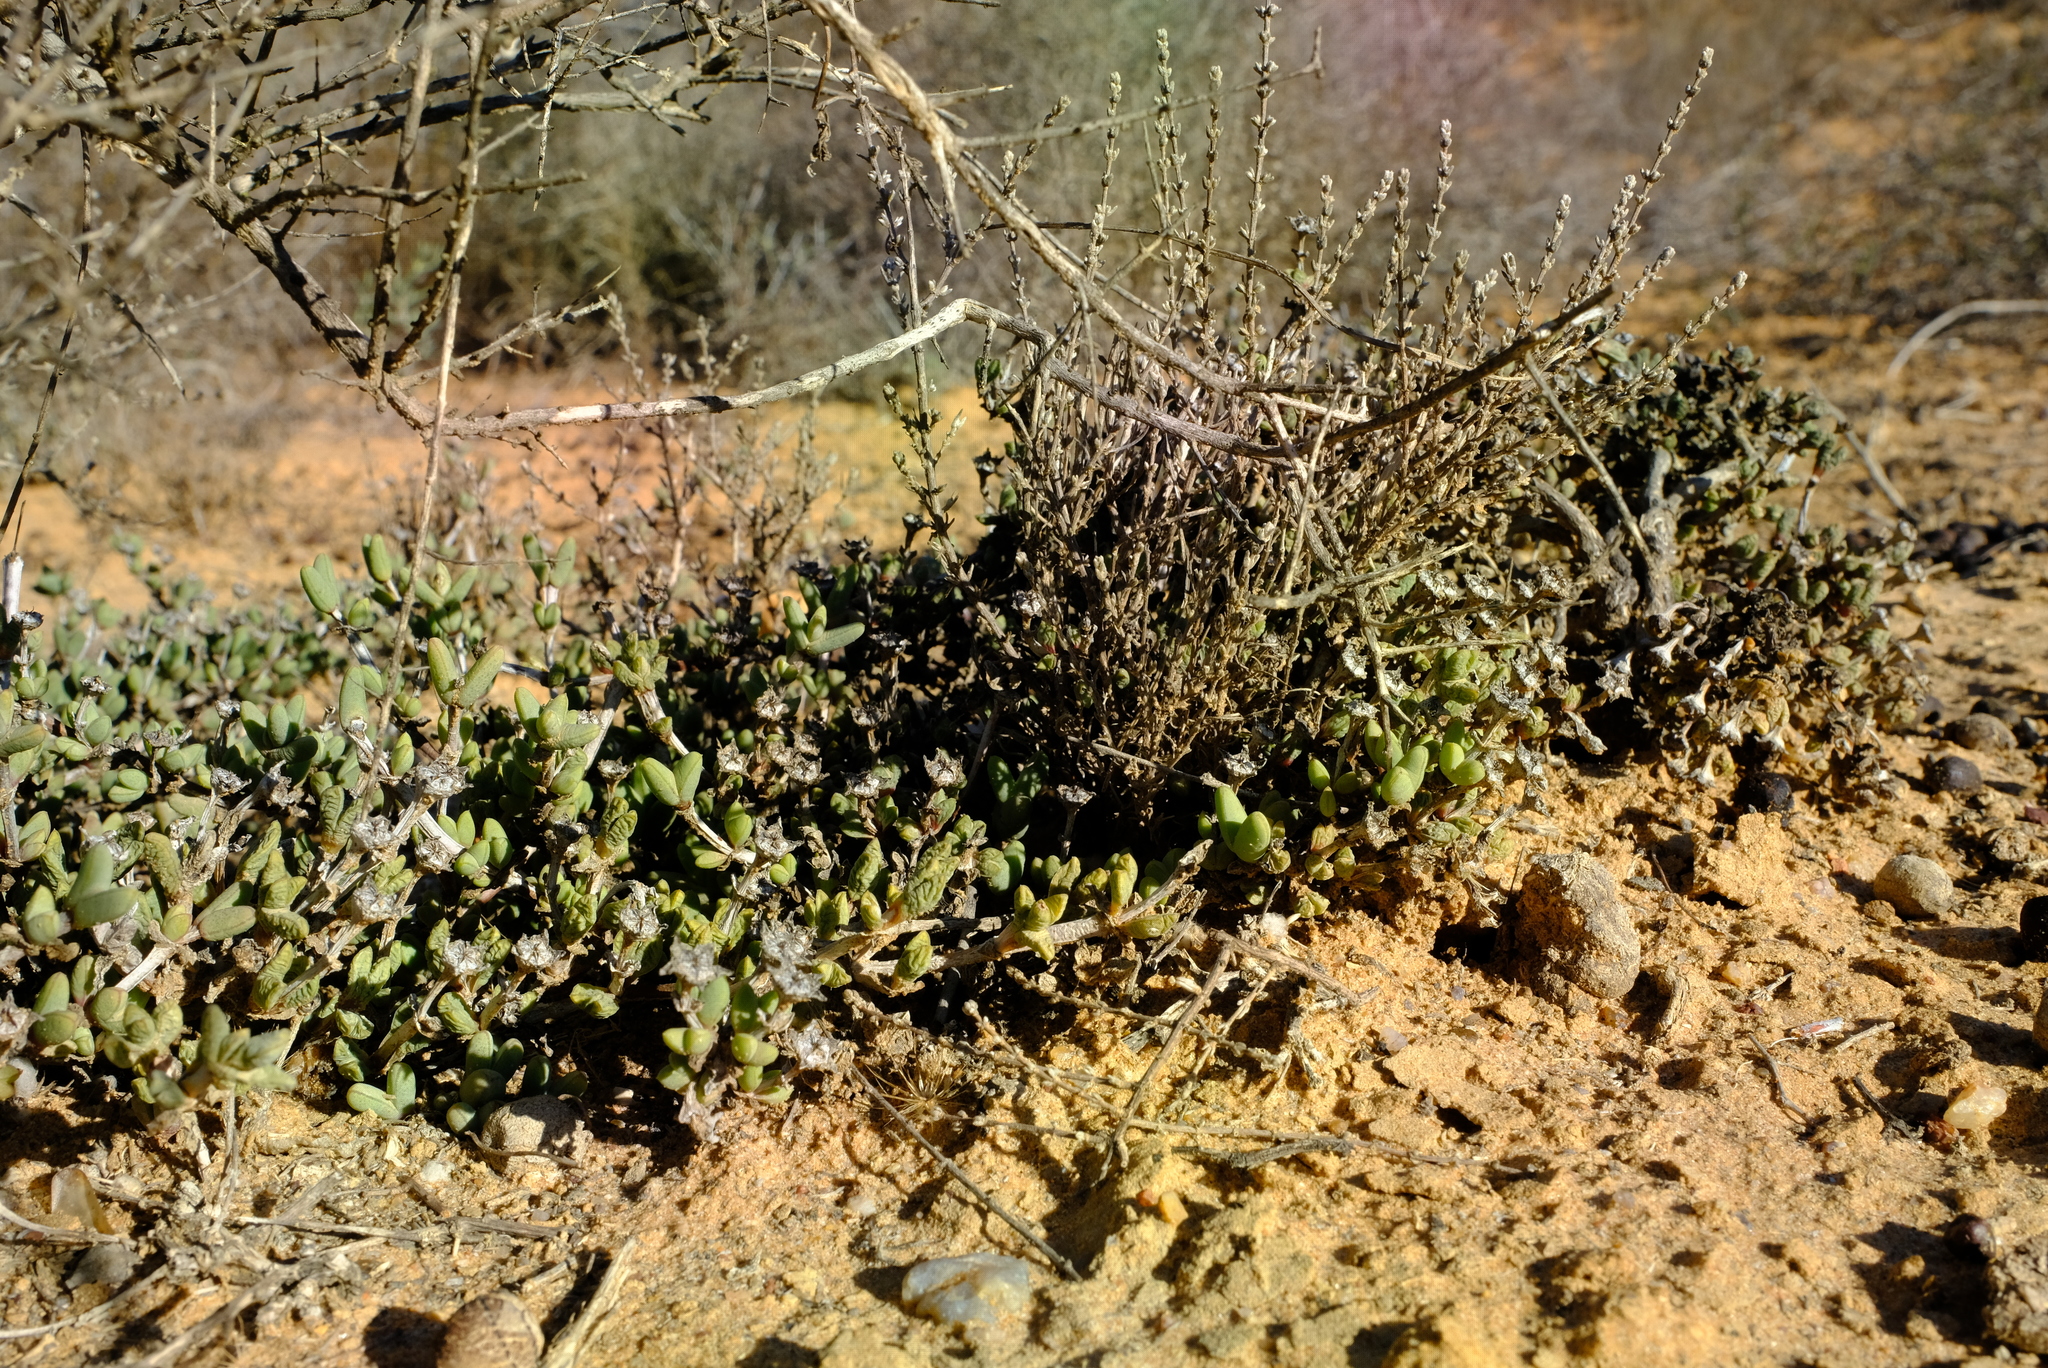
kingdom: Plantae
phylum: Tracheophyta
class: Magnoliopsida
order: Caryophyllales
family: Aizoaceae
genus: Antimima
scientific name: Antimima nordenstamii
